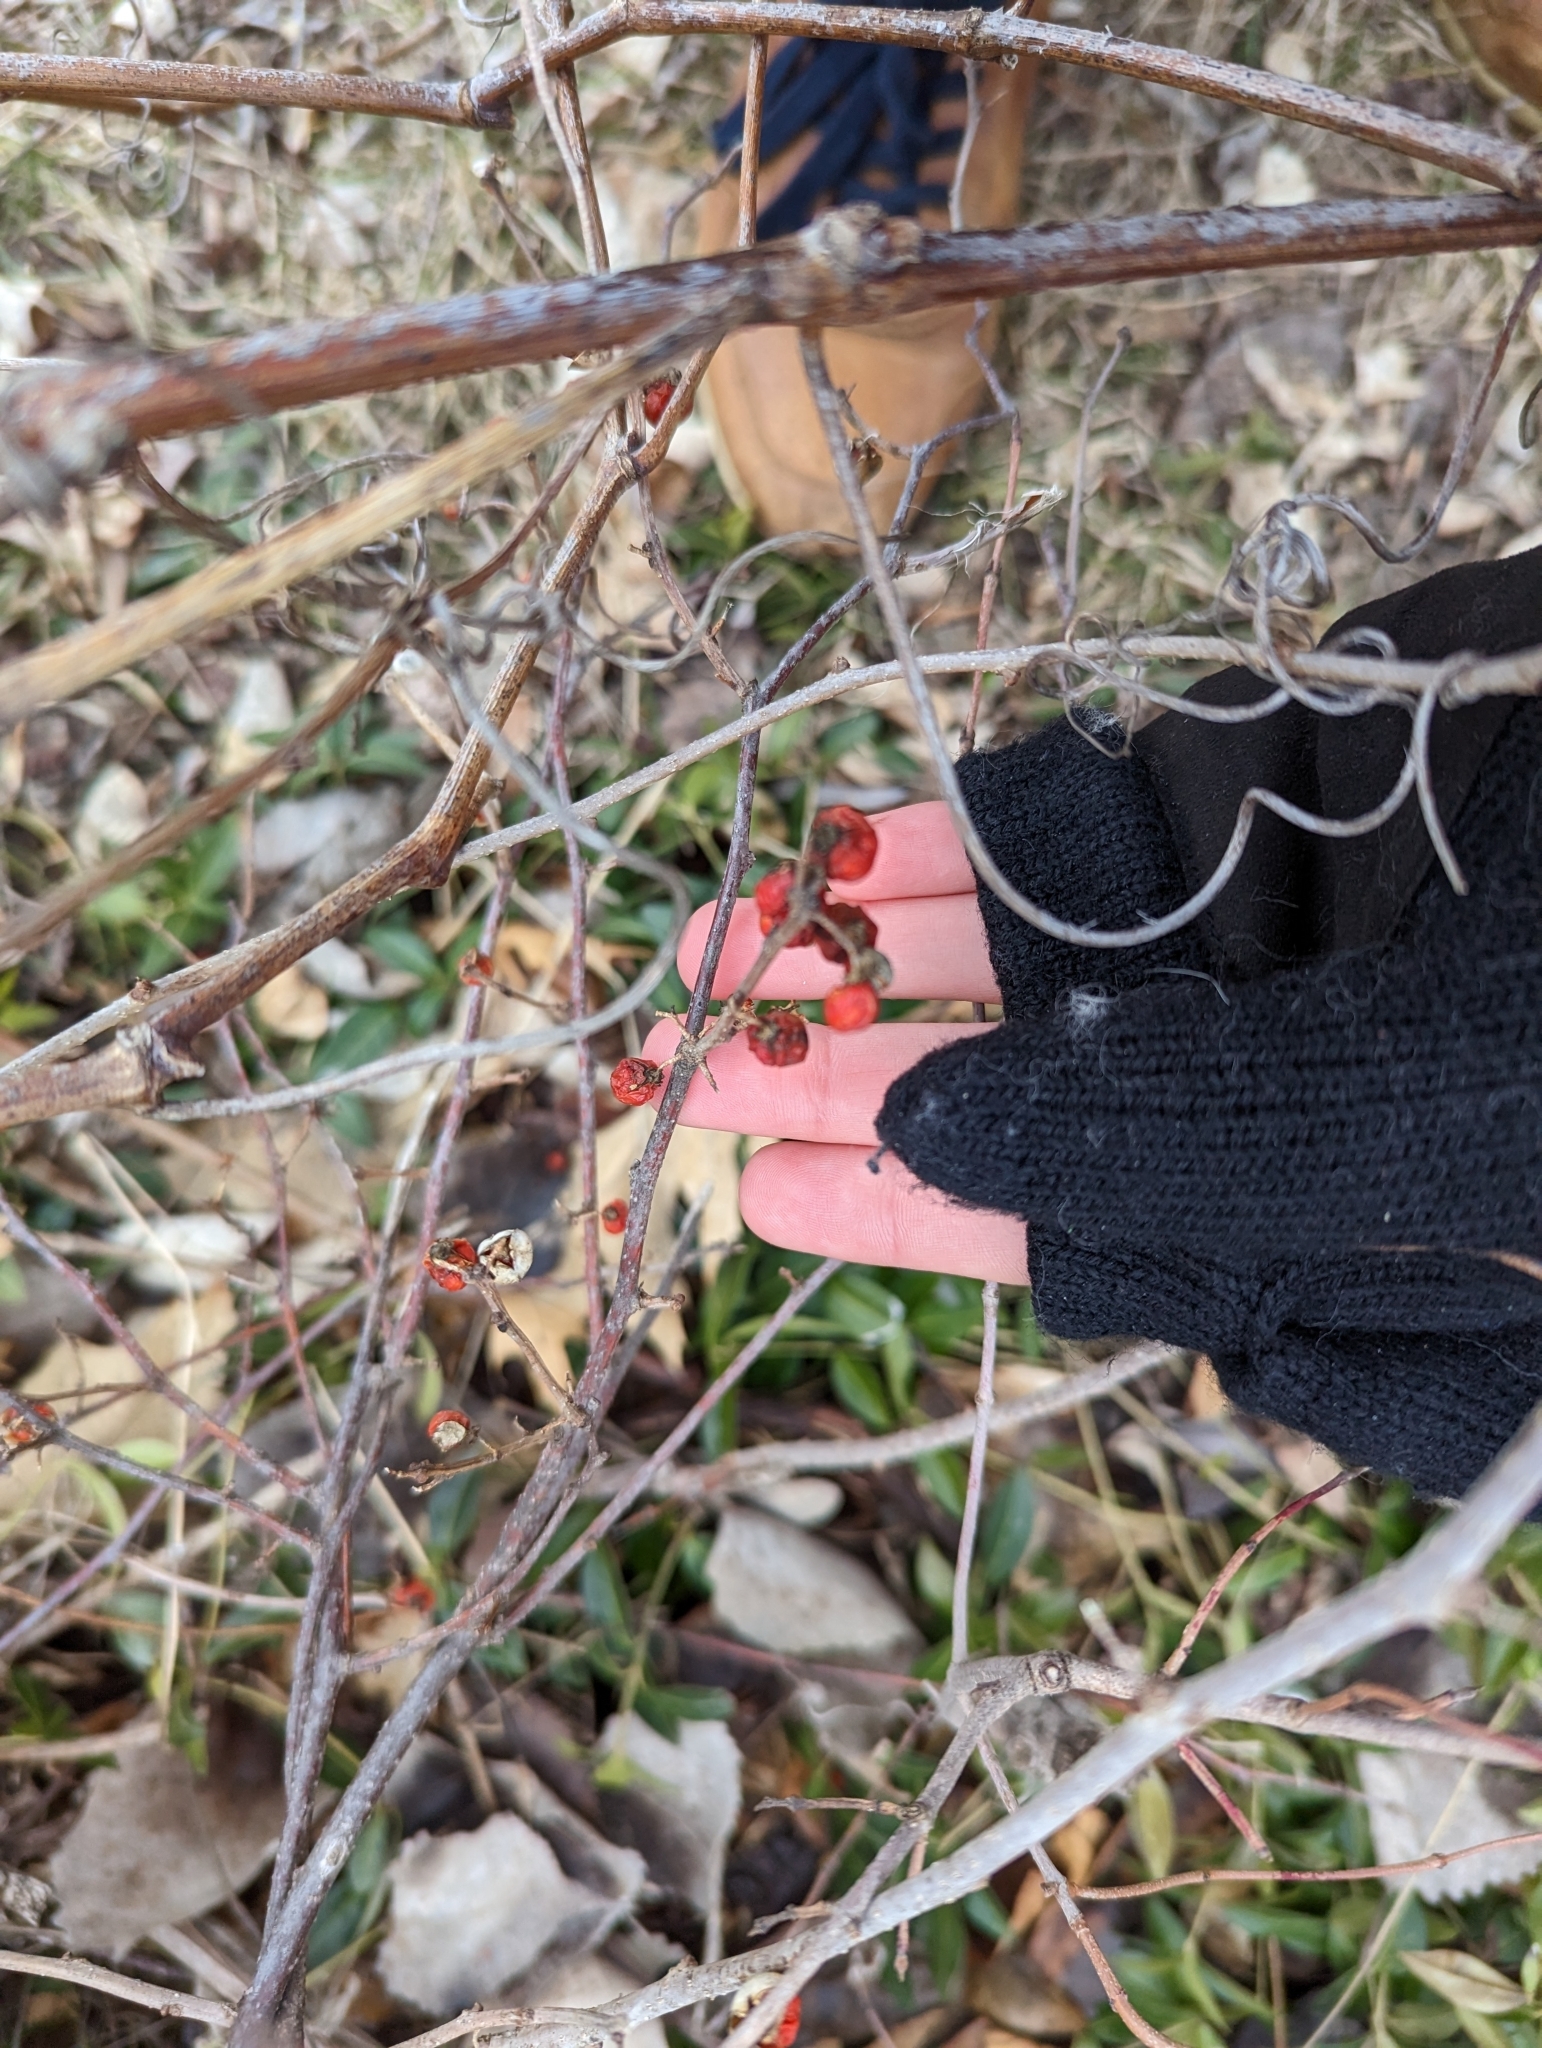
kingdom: Plantae
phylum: Tracheophyta
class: Magnoliopsida
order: Celastrales
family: Celastraceae
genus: Celastrus
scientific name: Celastrus orbiculatus
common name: Oriental bittersweet
